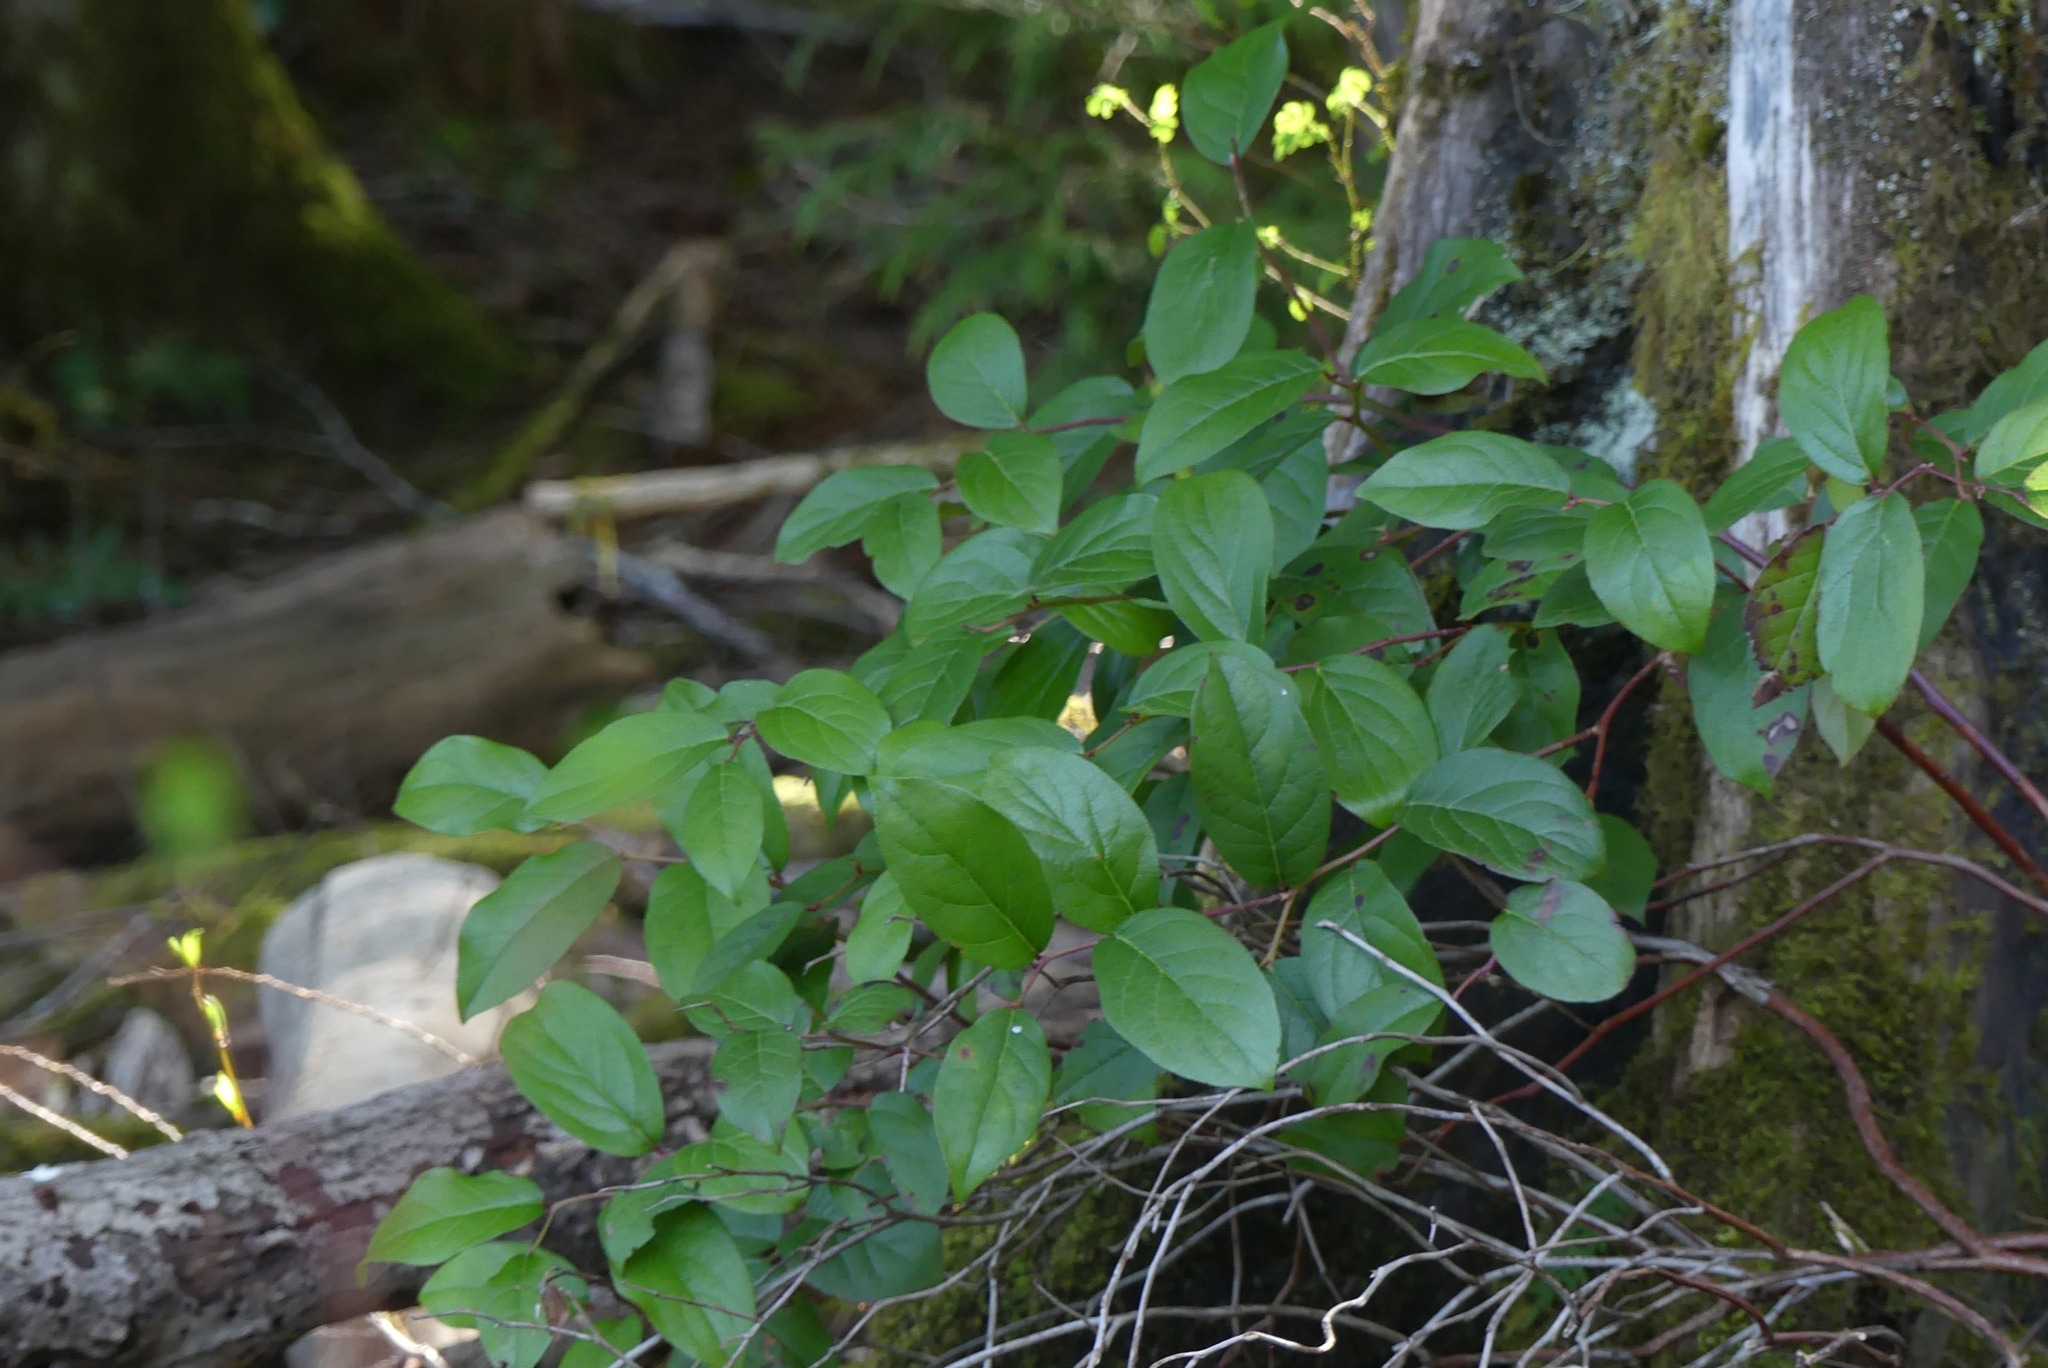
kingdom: Plantae
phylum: Tracheophyta
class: Magnoliopsida
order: Ericales
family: Ericaceae
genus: Gaultheria
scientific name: Gaultheria shallon
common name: Shallon
